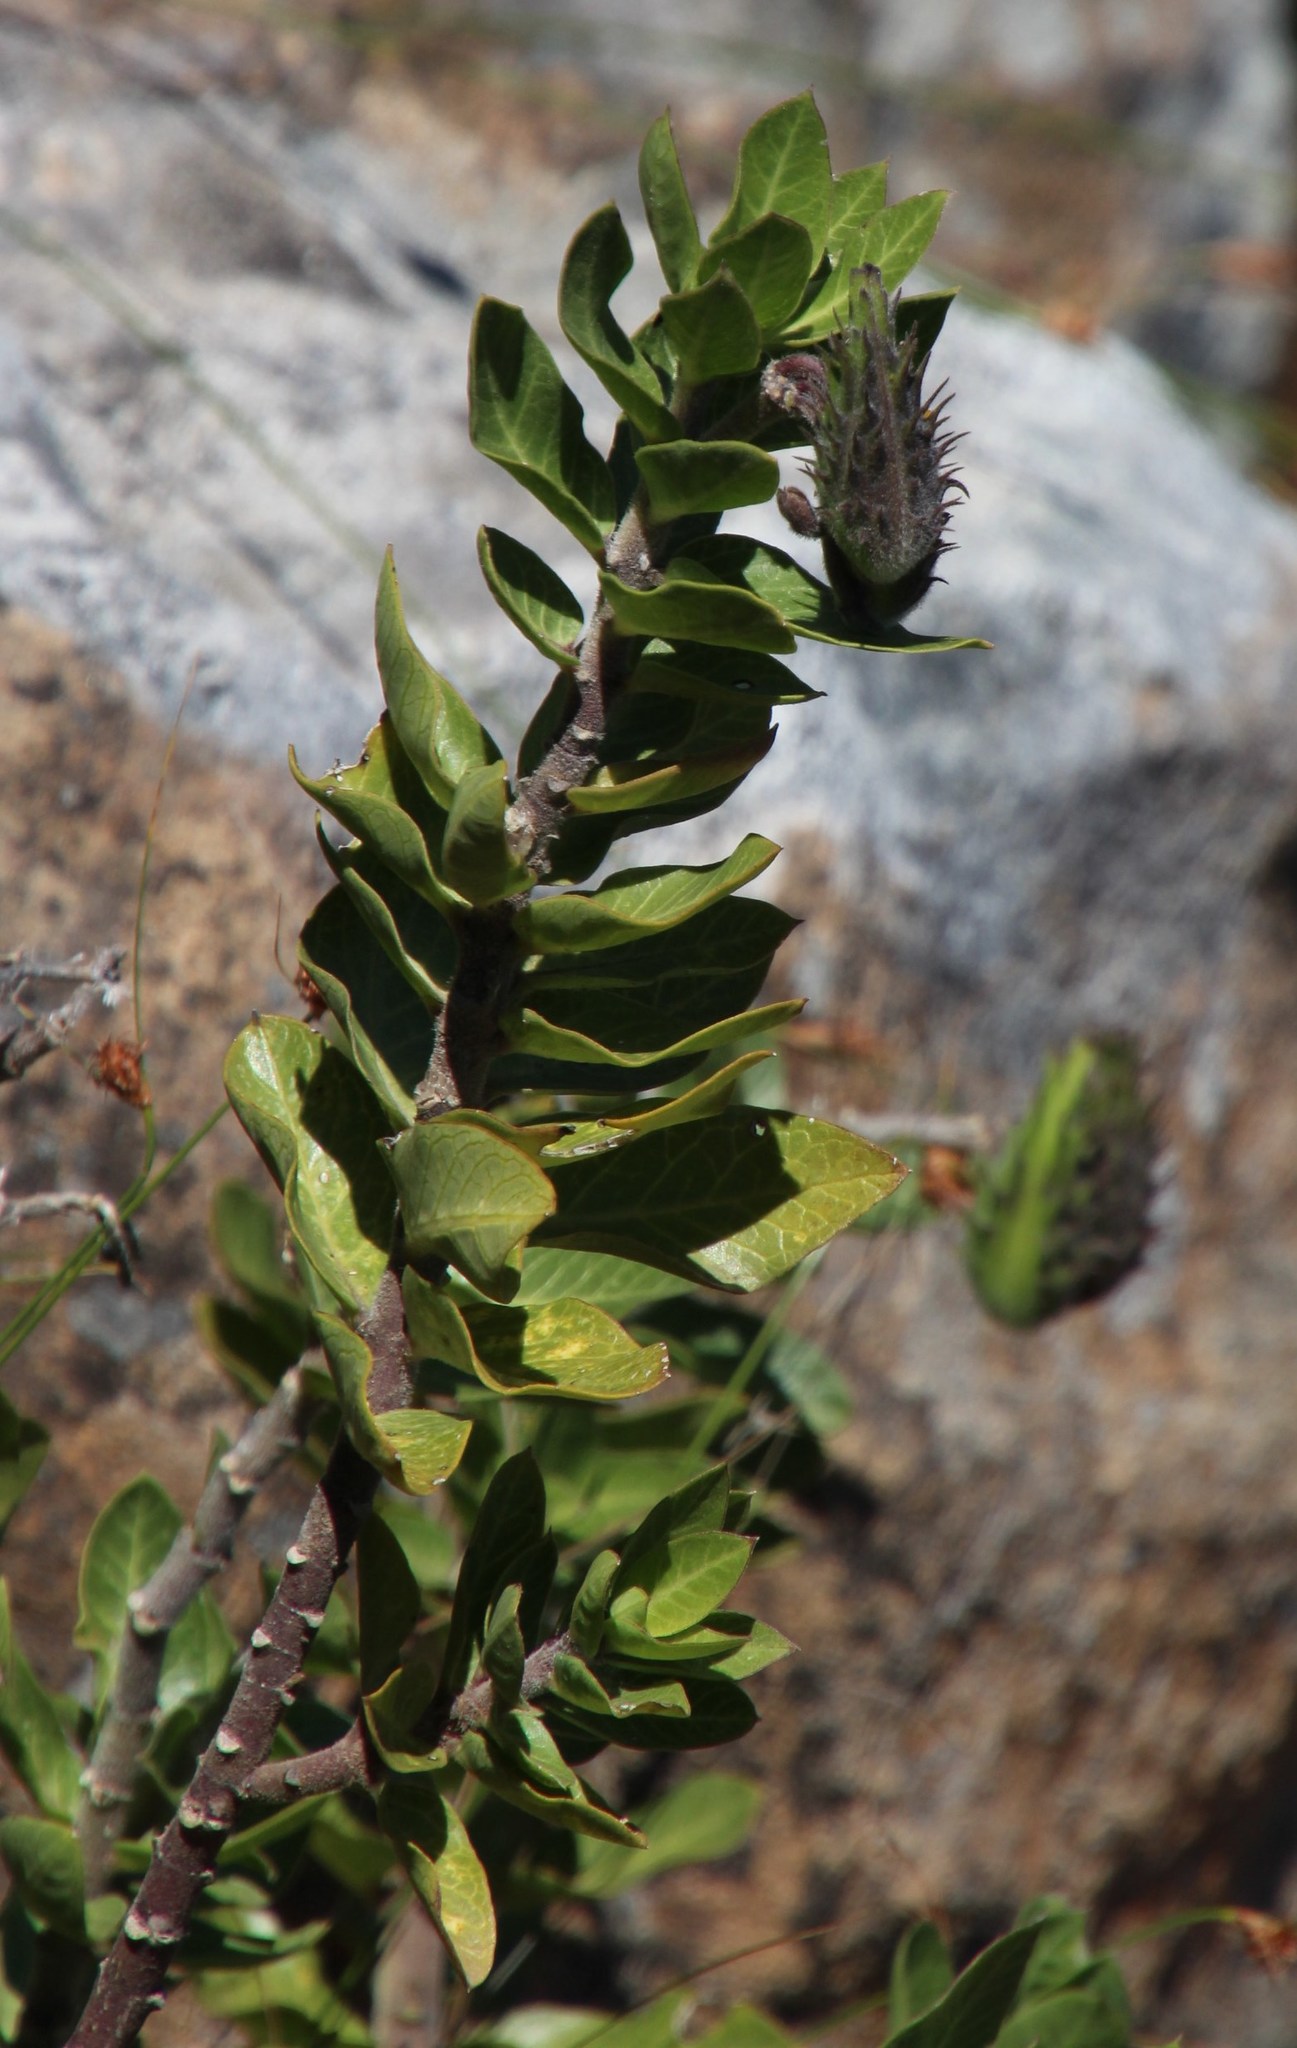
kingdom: Plantae
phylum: Tracheophyta
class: Magnoliopsida
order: Gentianales
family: Apocynaceae
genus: Gomphocarpus
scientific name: Gomphocarpus cancellatus
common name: Wild cotton
